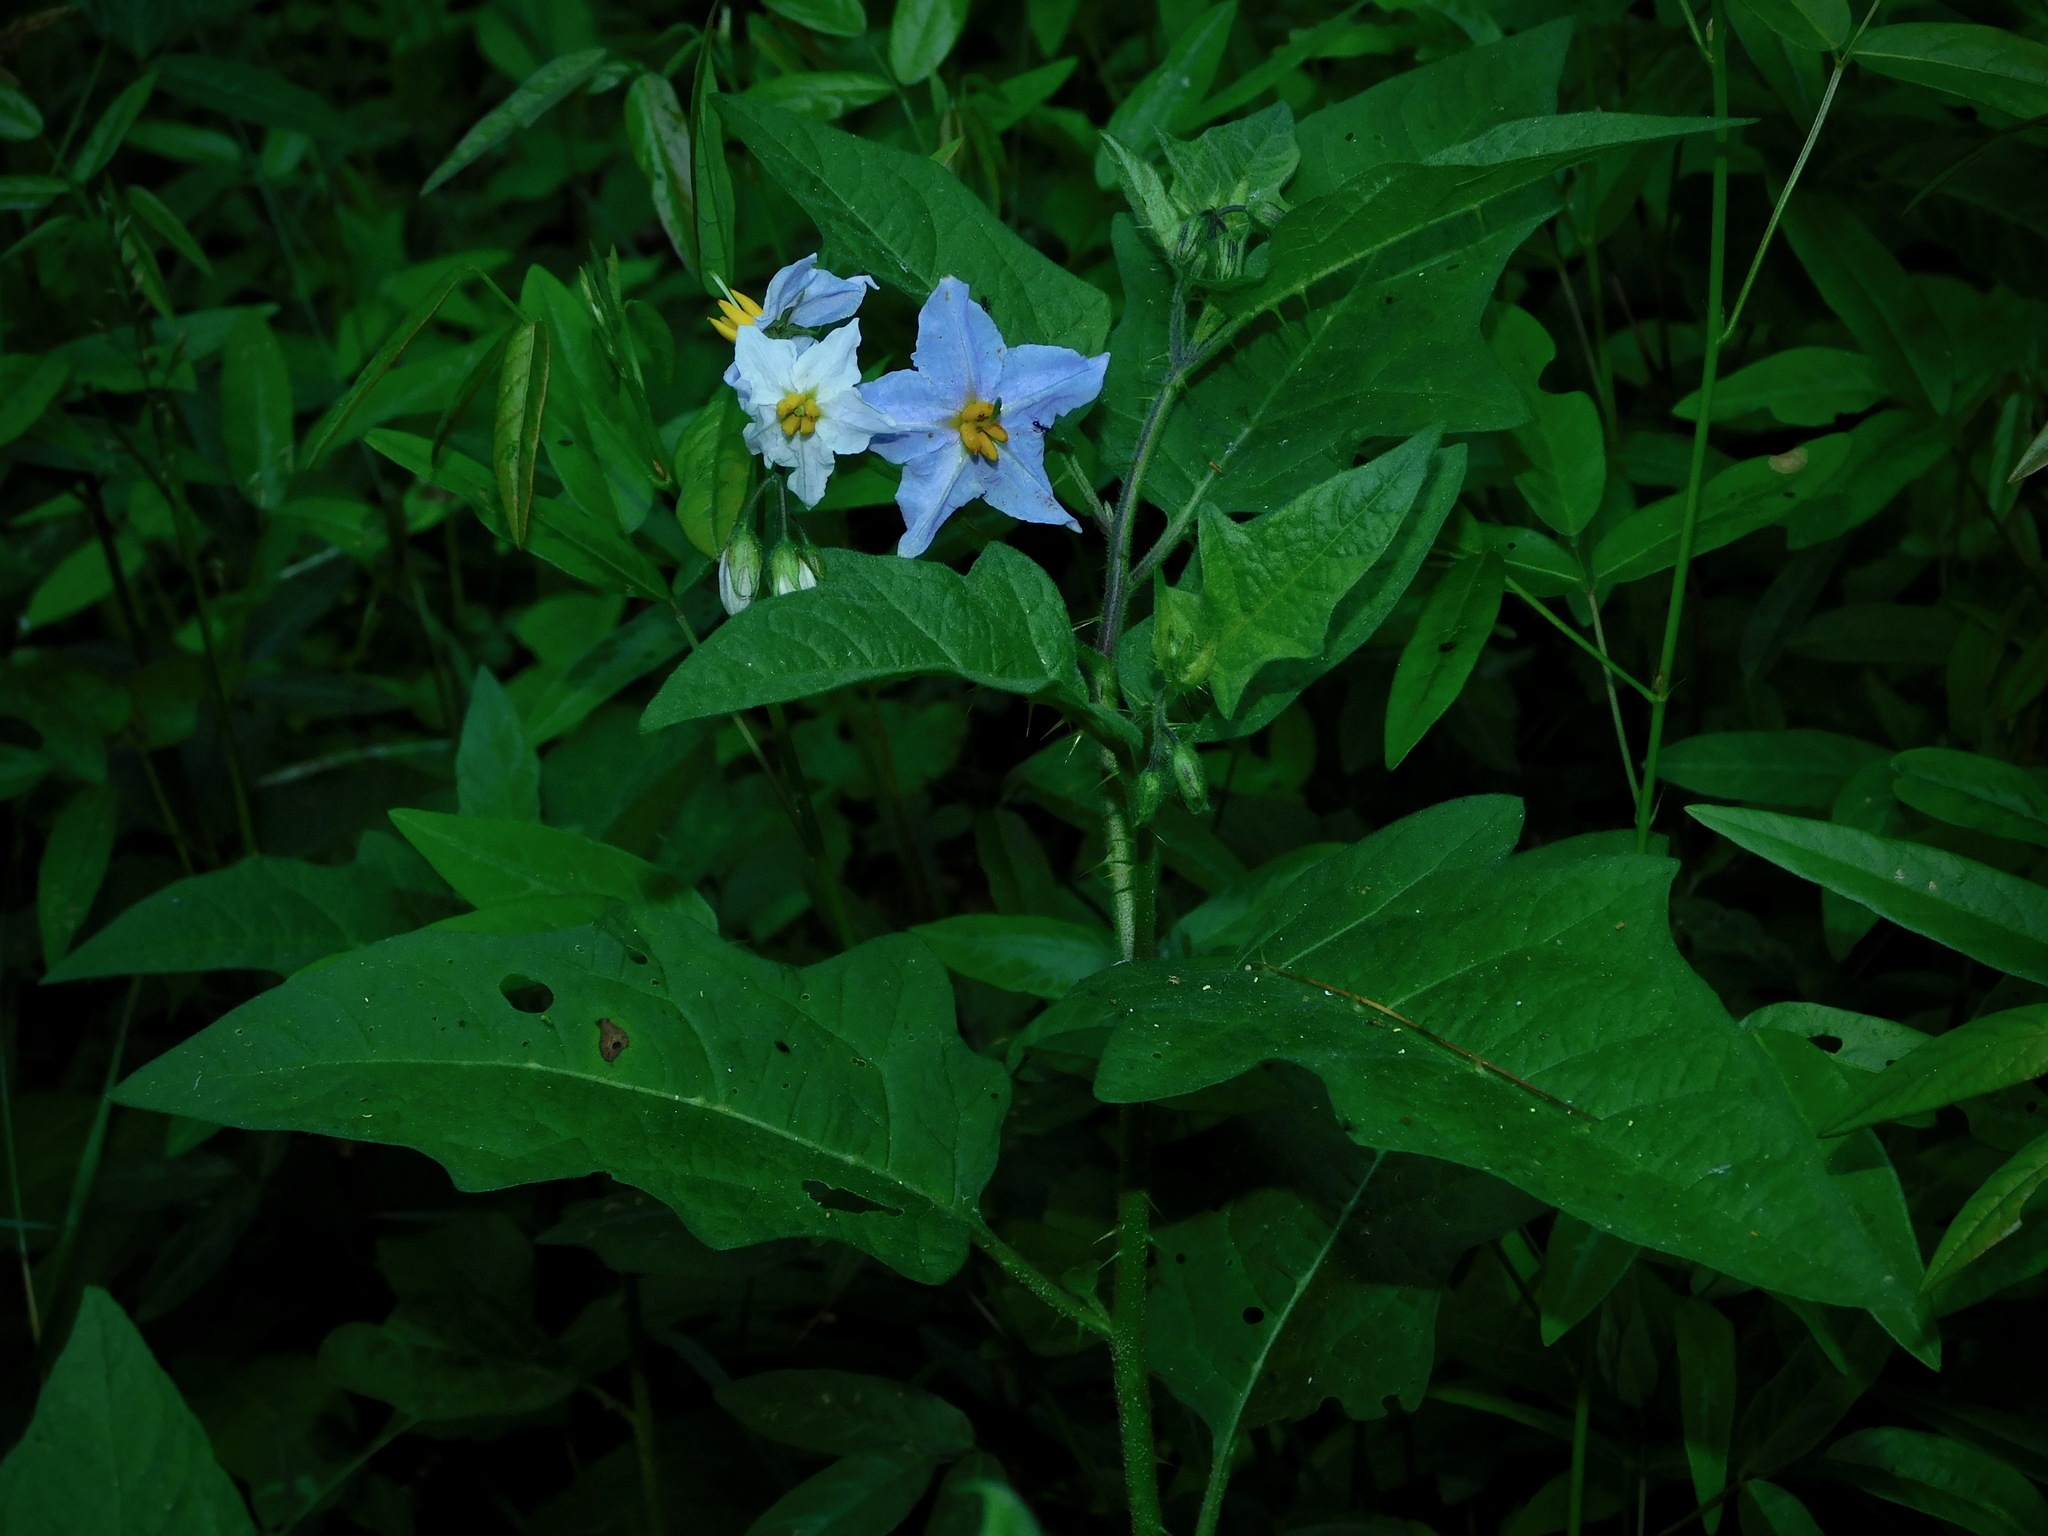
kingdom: Plantae
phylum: Tracheophyta
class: Magnoliopsida
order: Solanales
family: Solanaceae
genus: Solanum
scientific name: Solanum carolinense
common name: Horse-nettle
